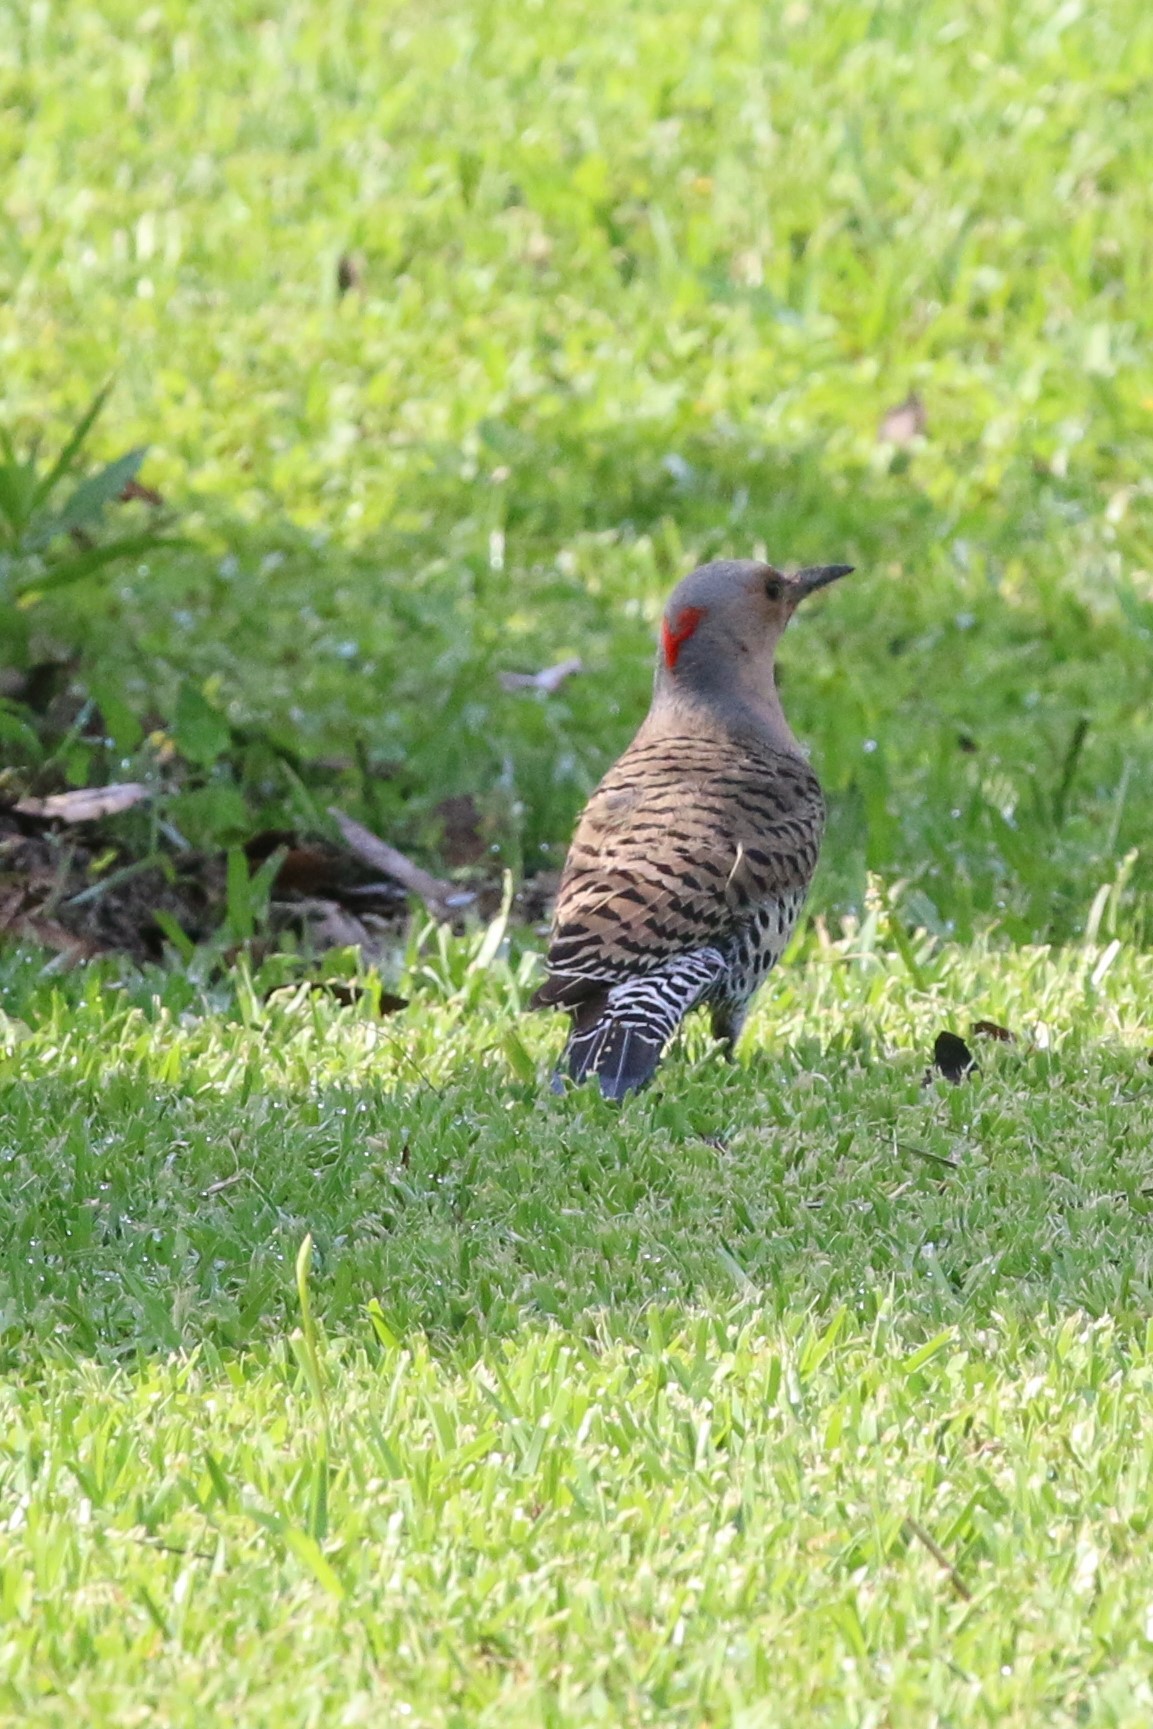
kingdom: Animalia
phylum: Chordata
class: Aves
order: Piciformes
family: Picidae
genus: Colaptes
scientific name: Colaptes auratus
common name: Northern flicker
